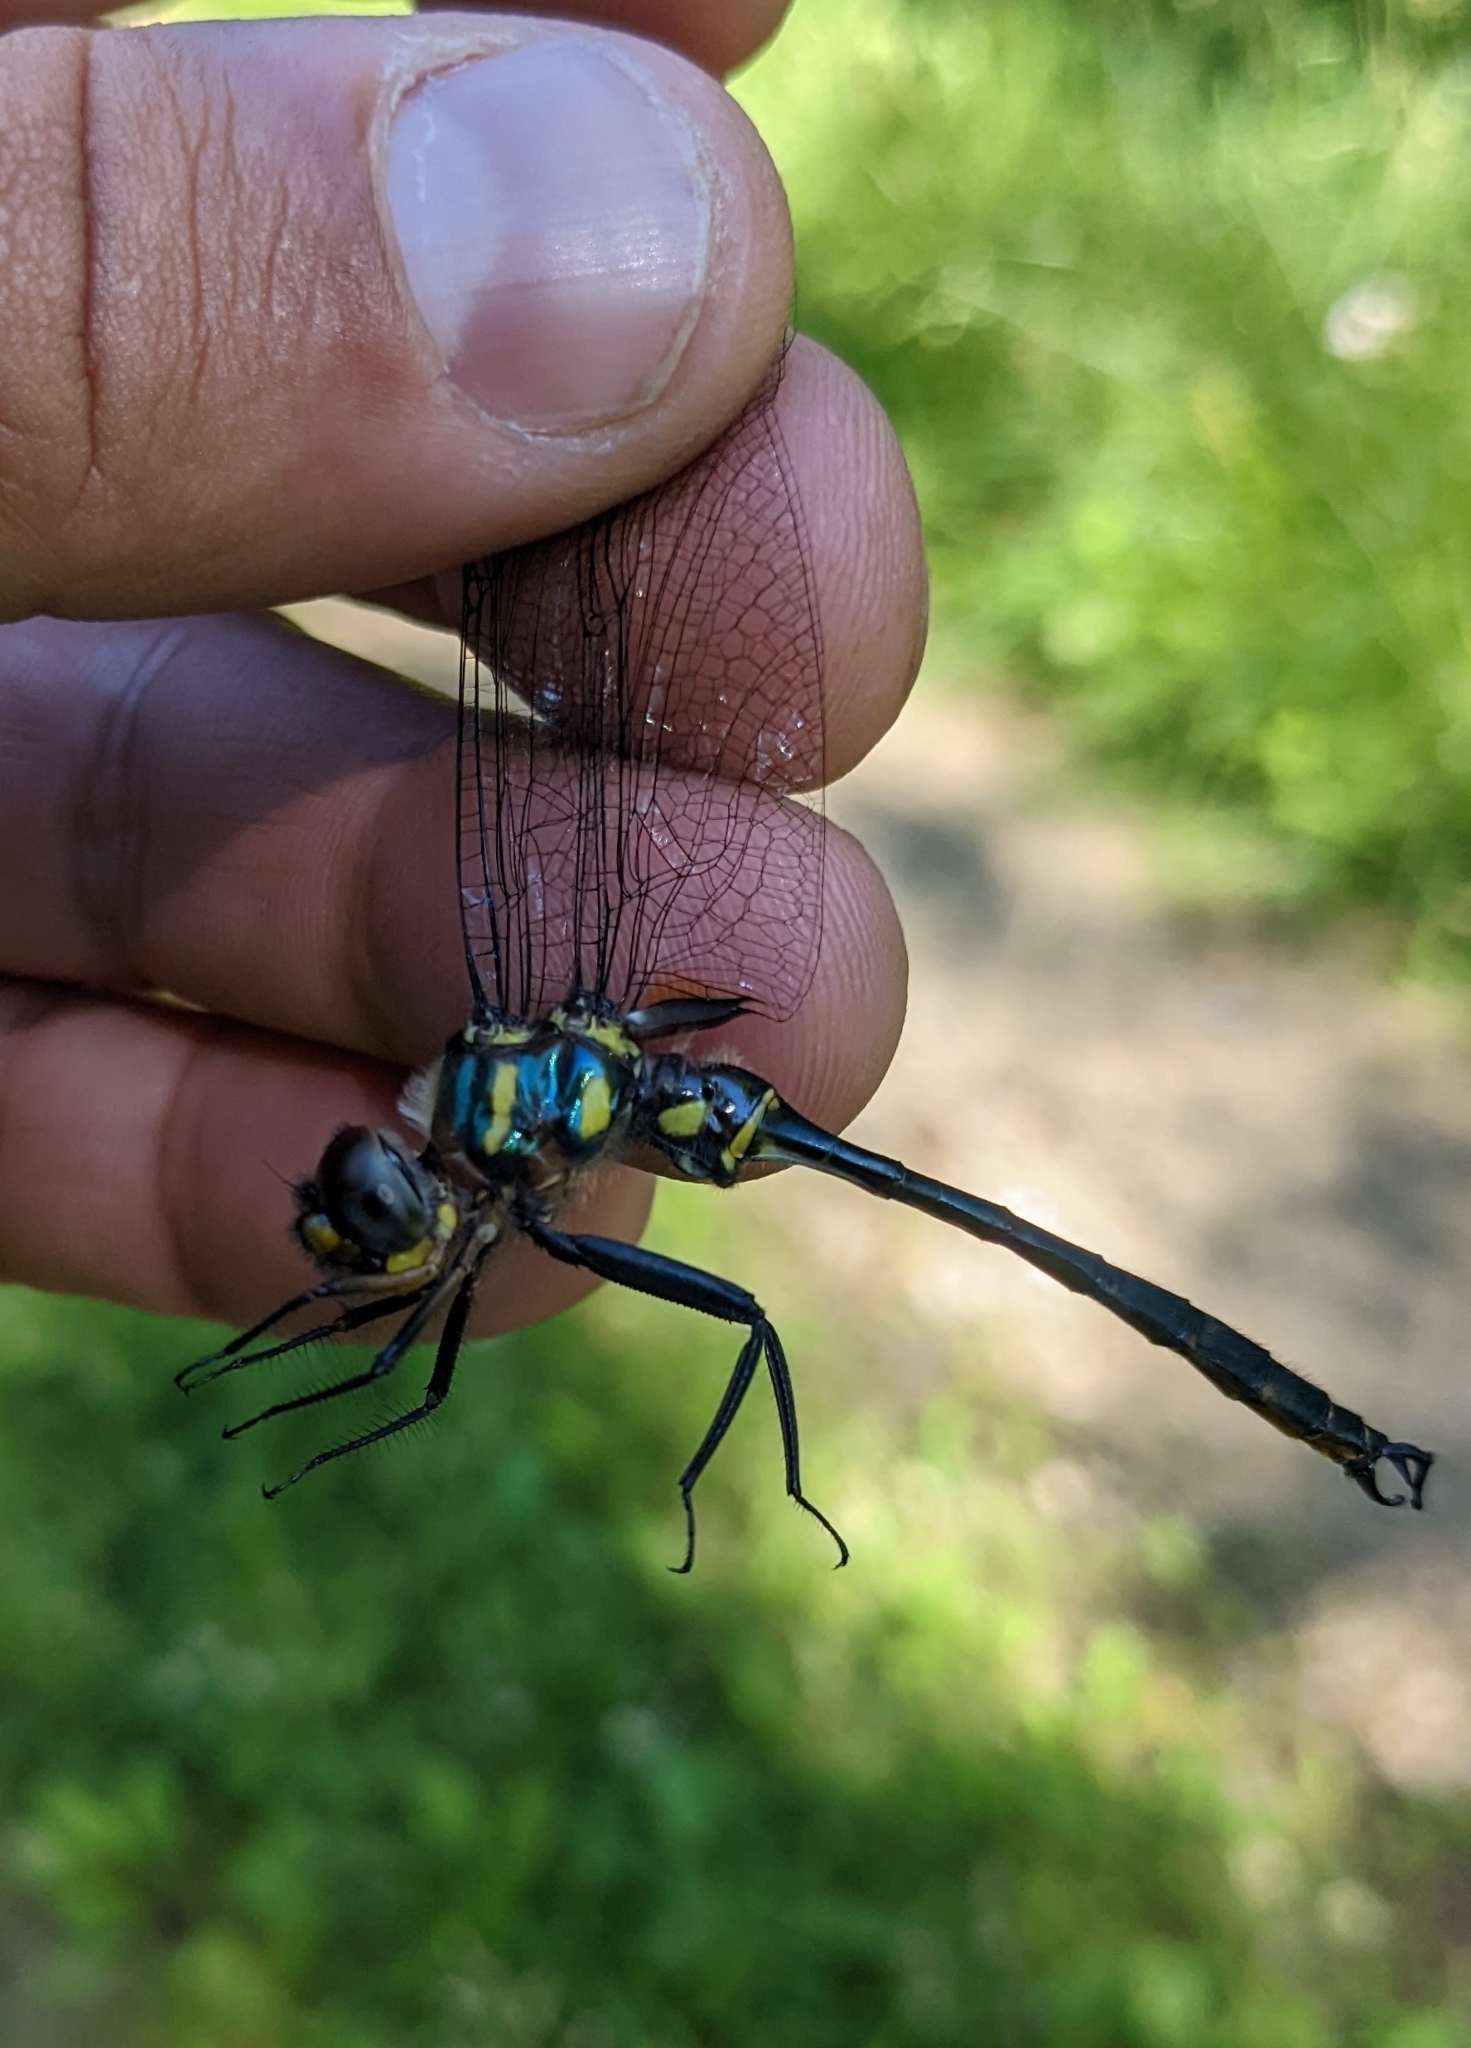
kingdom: Animalia
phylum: Arthropoda
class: Insecta
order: Odonata
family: Corduliidae
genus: Somatochlora
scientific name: Somatochlora tenebrosa
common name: Clamp-tipped emerald
